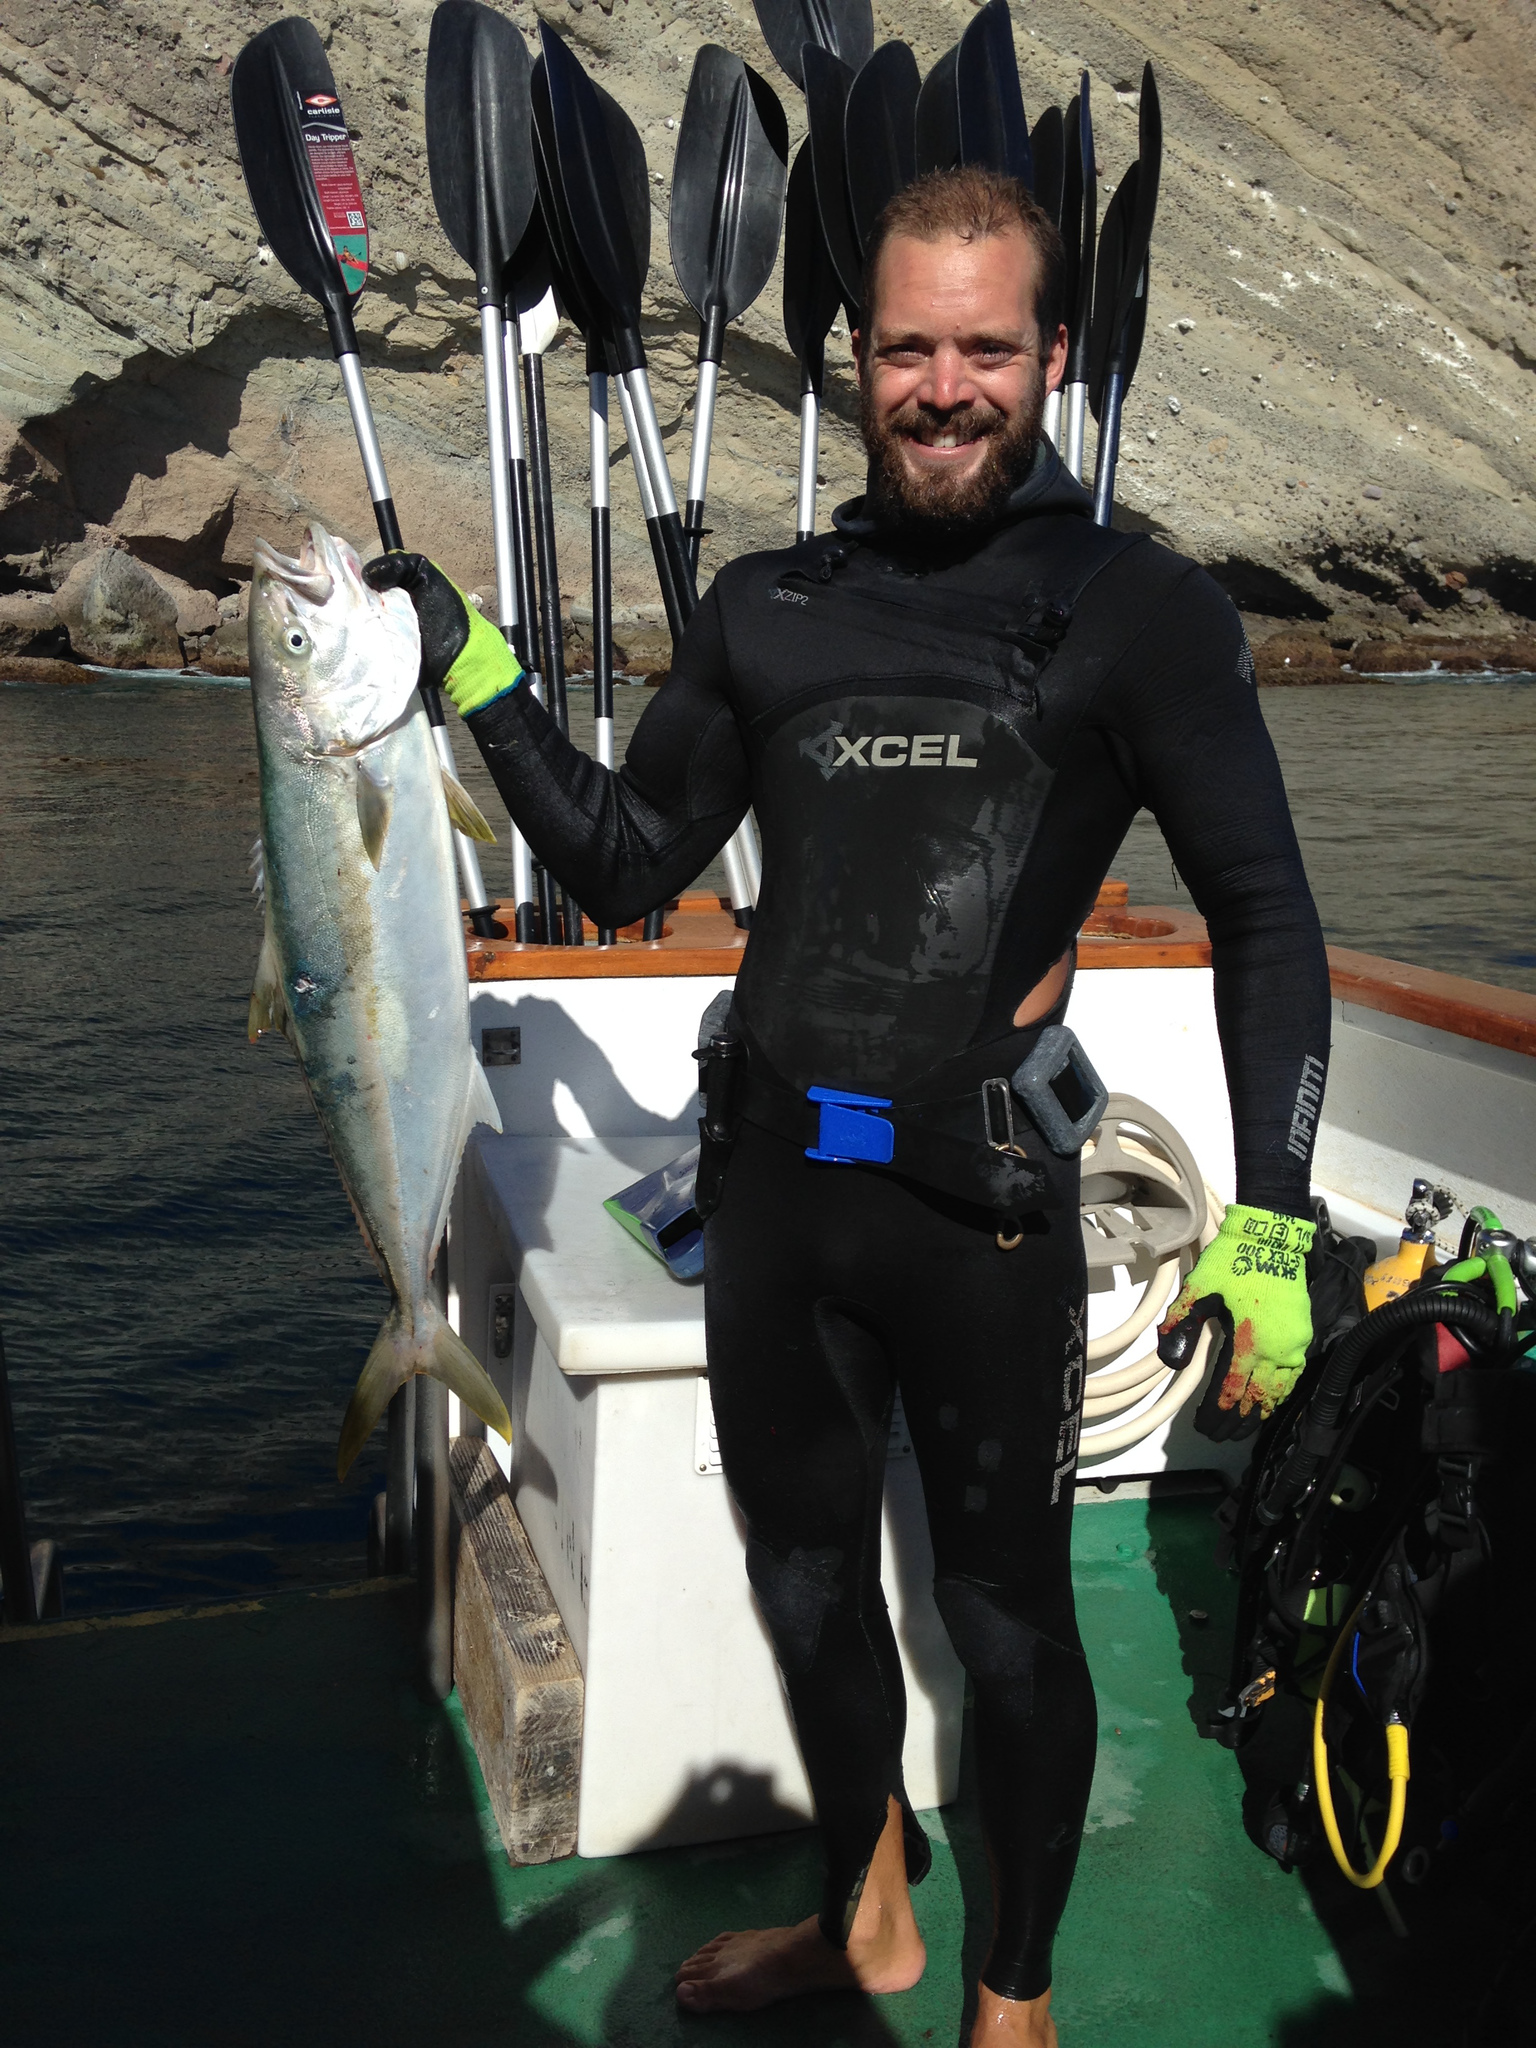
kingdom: Animalia
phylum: Chordata
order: Perciformes
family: Carangidae
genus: Seriola
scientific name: Seriola lalandi
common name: Yellowtail kingfish
